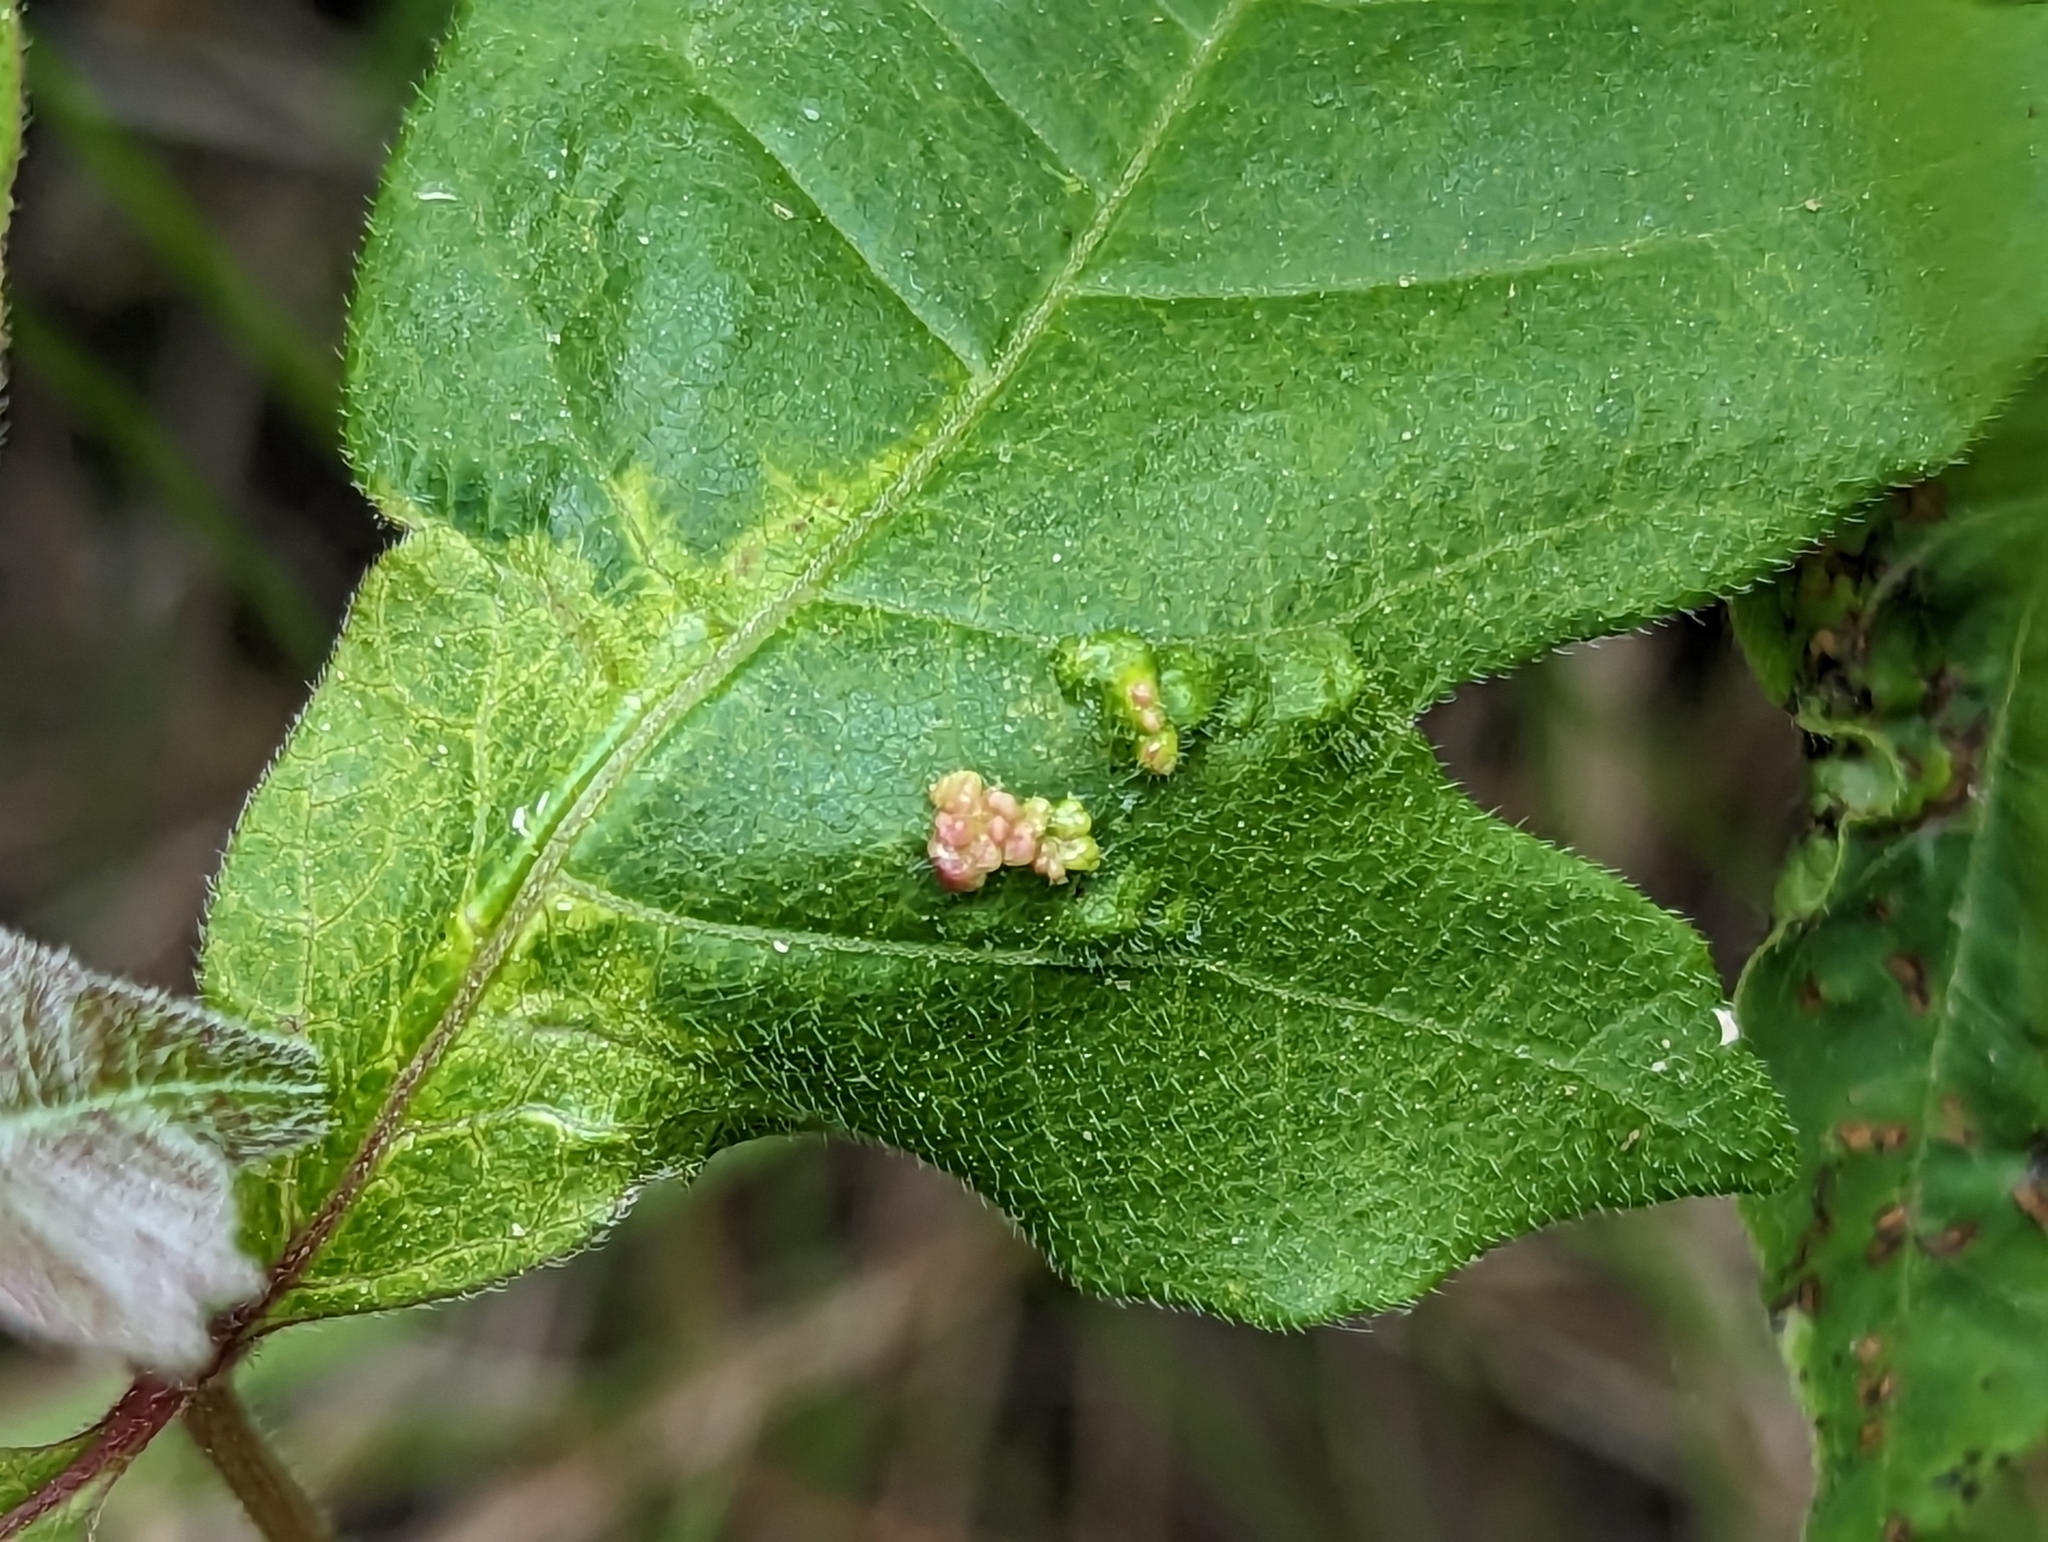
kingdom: Animalia
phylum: Arthropoda
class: Arachnida
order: Trombidiformes
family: Eriophyidae
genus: Aculops
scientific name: Aculops
